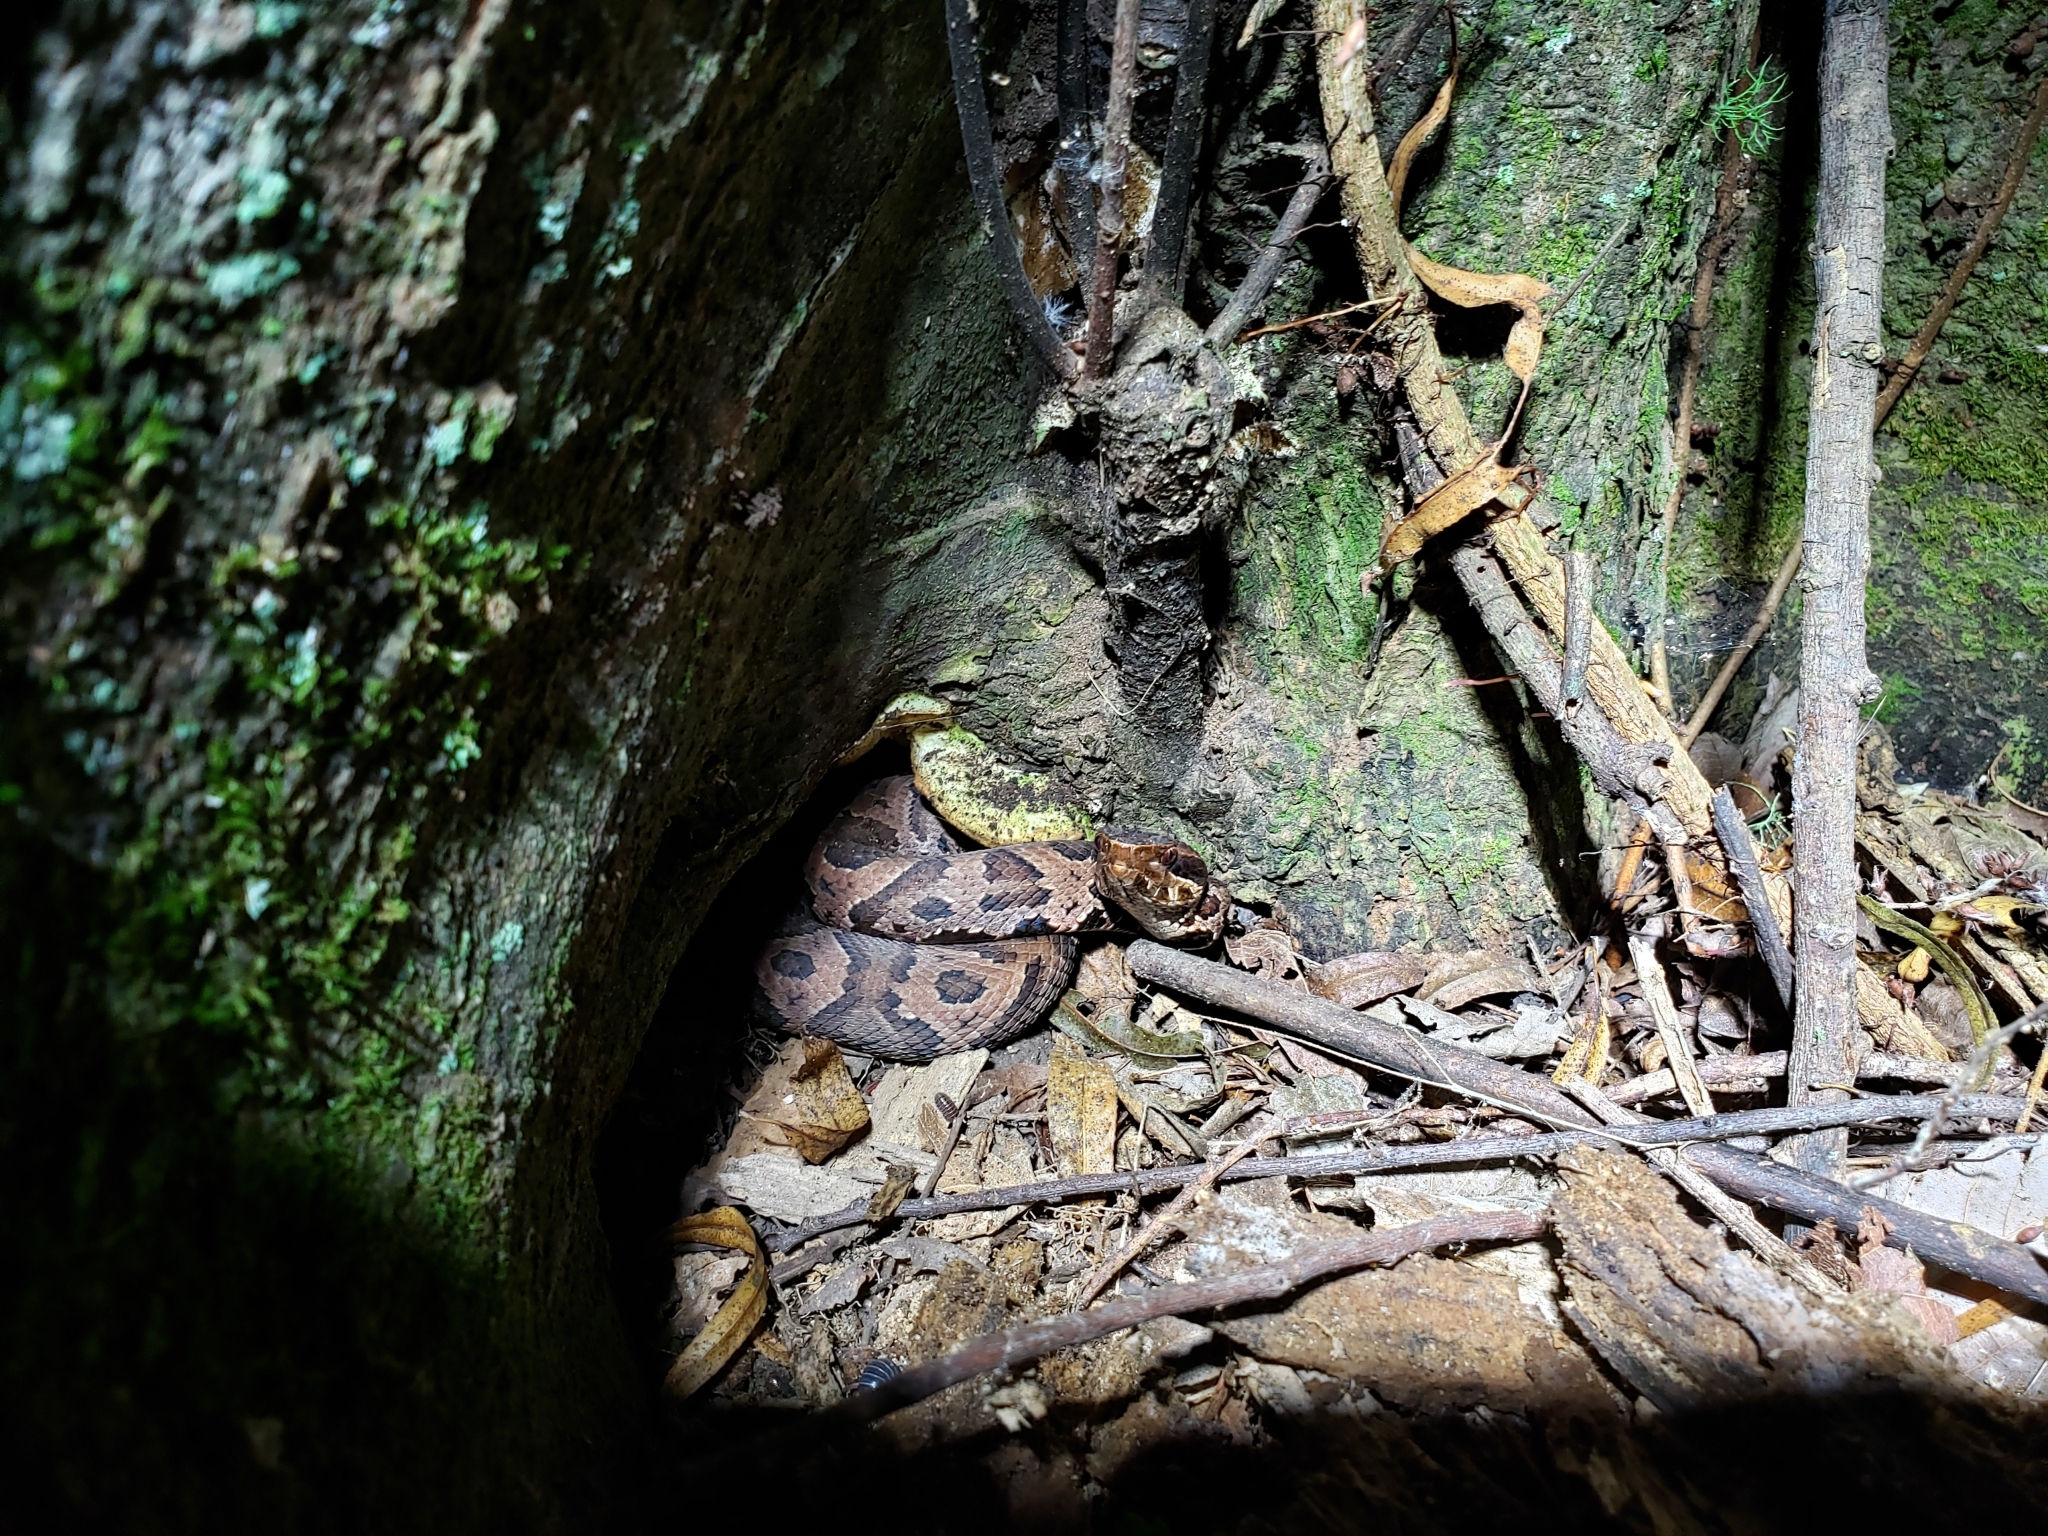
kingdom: Animalia
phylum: Chordata
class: Squamata
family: Viperidae
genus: Agkistrodon
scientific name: Agkistrodon piscivorus
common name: Cottonmouth
